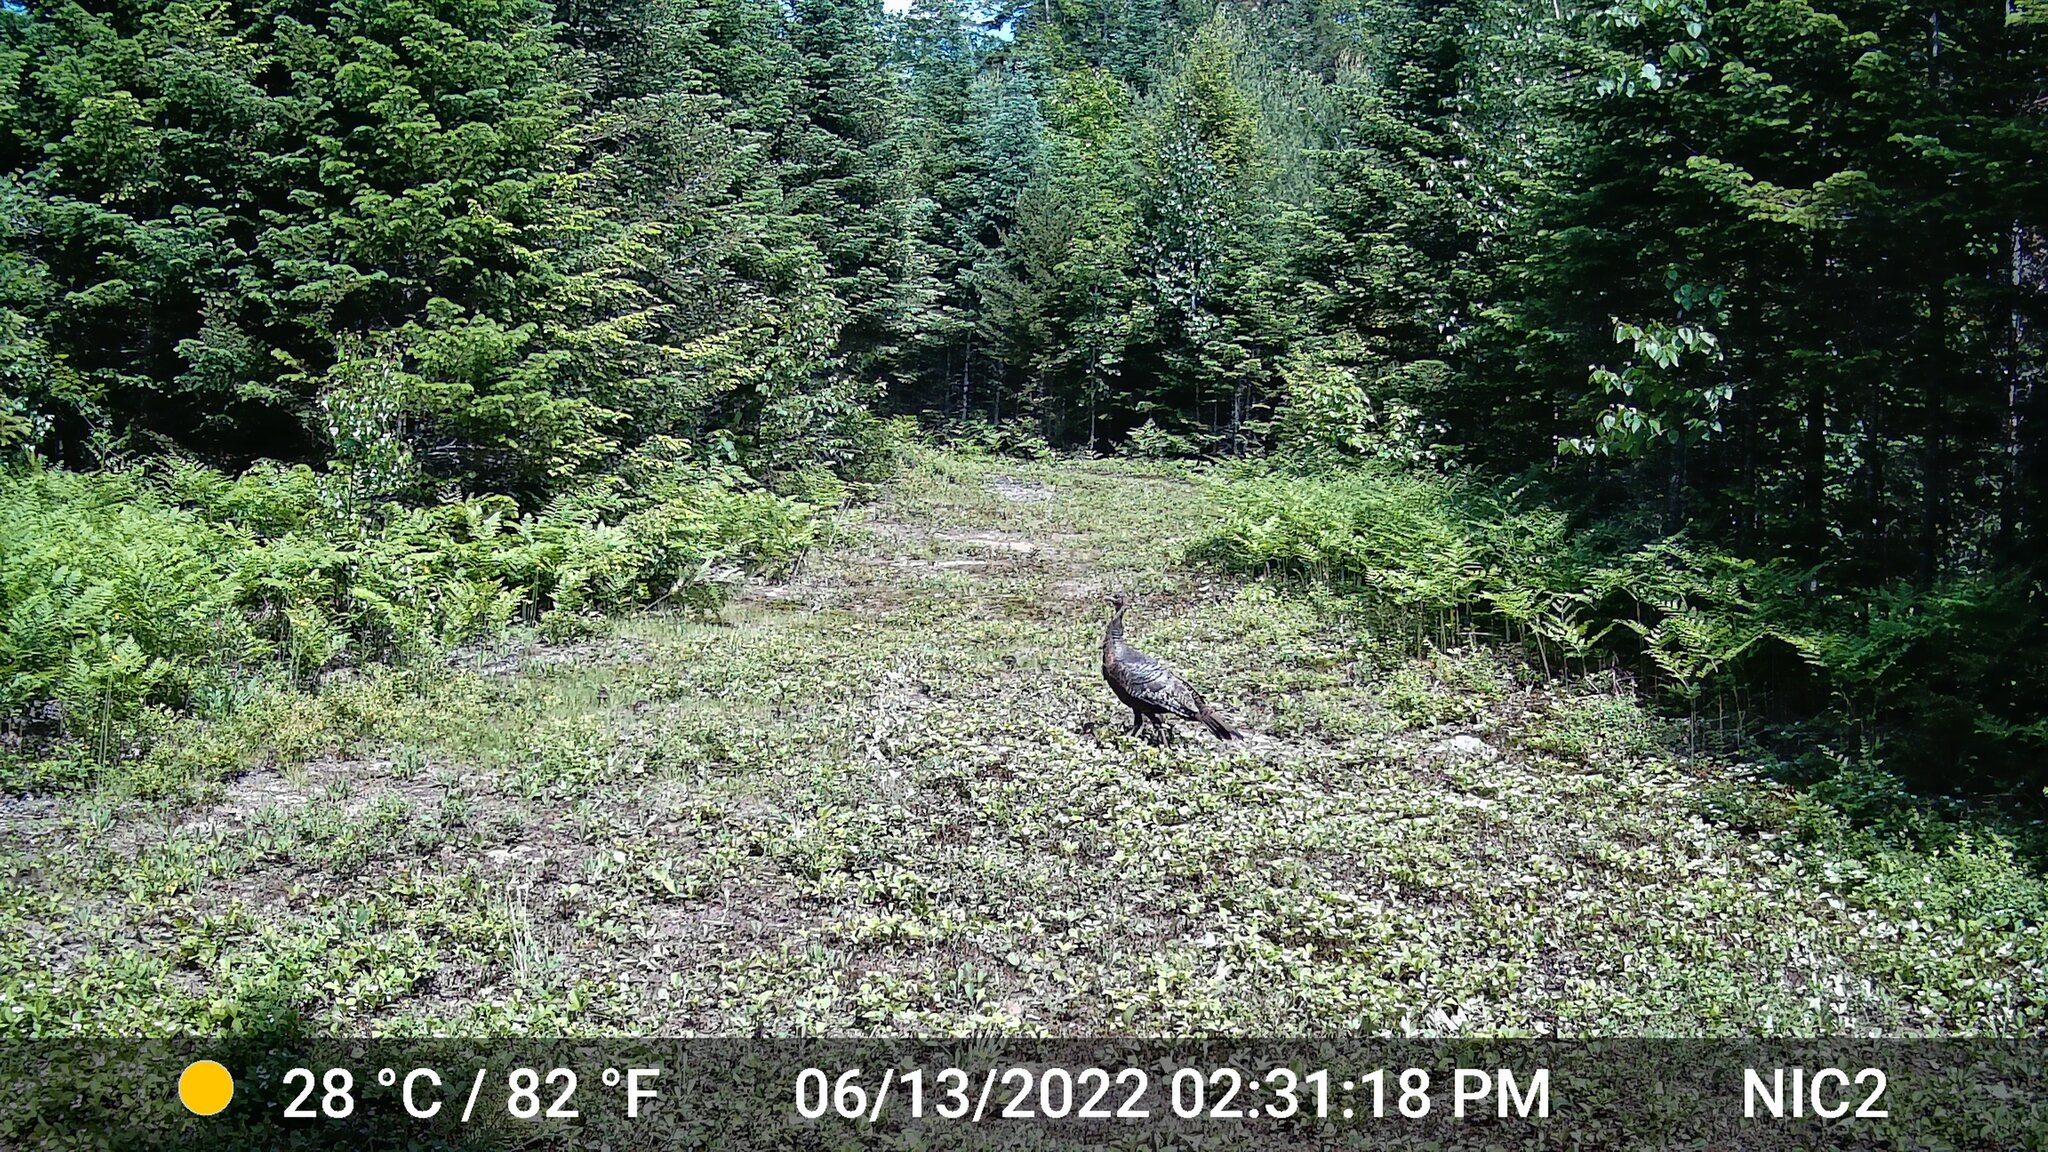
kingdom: Animalia
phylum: Chordata
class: Aves
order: Galliformes
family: Phasianidae
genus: Meleagris
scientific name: Meleagris gallopavo
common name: Wild turkey
